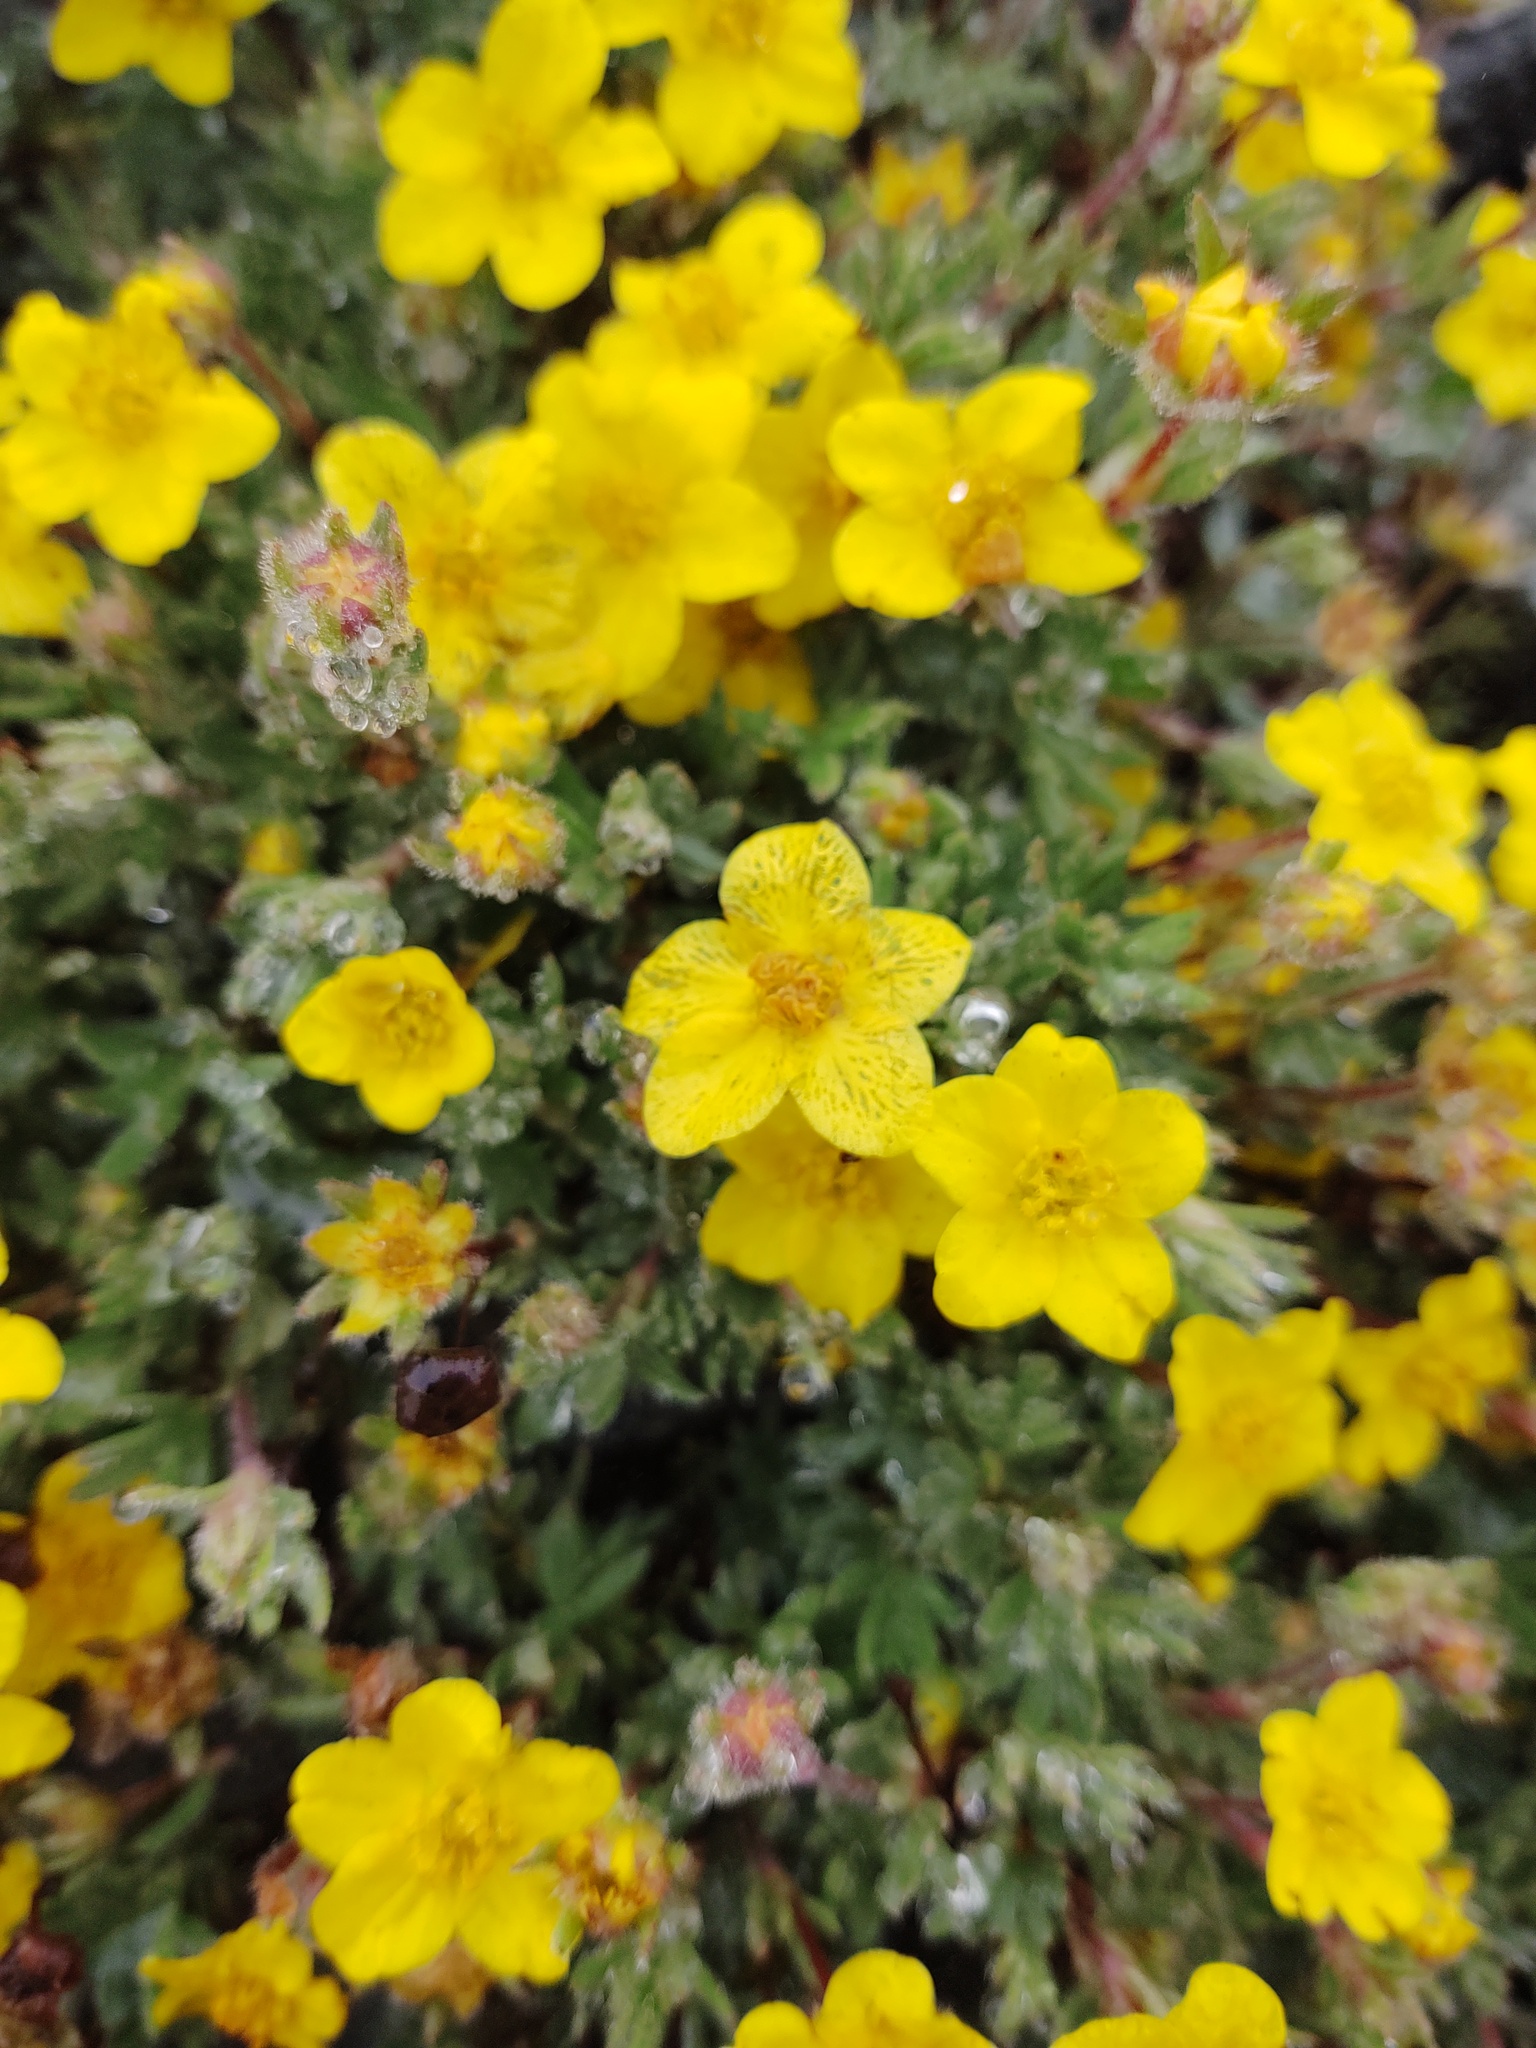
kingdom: Plantae
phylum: Tracheophyta
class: Magnoliopsida
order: Rosales
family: Rosaceae
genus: Dasiphora
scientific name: Dasiphora fruticosa
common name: Shrubby cinquefoil
